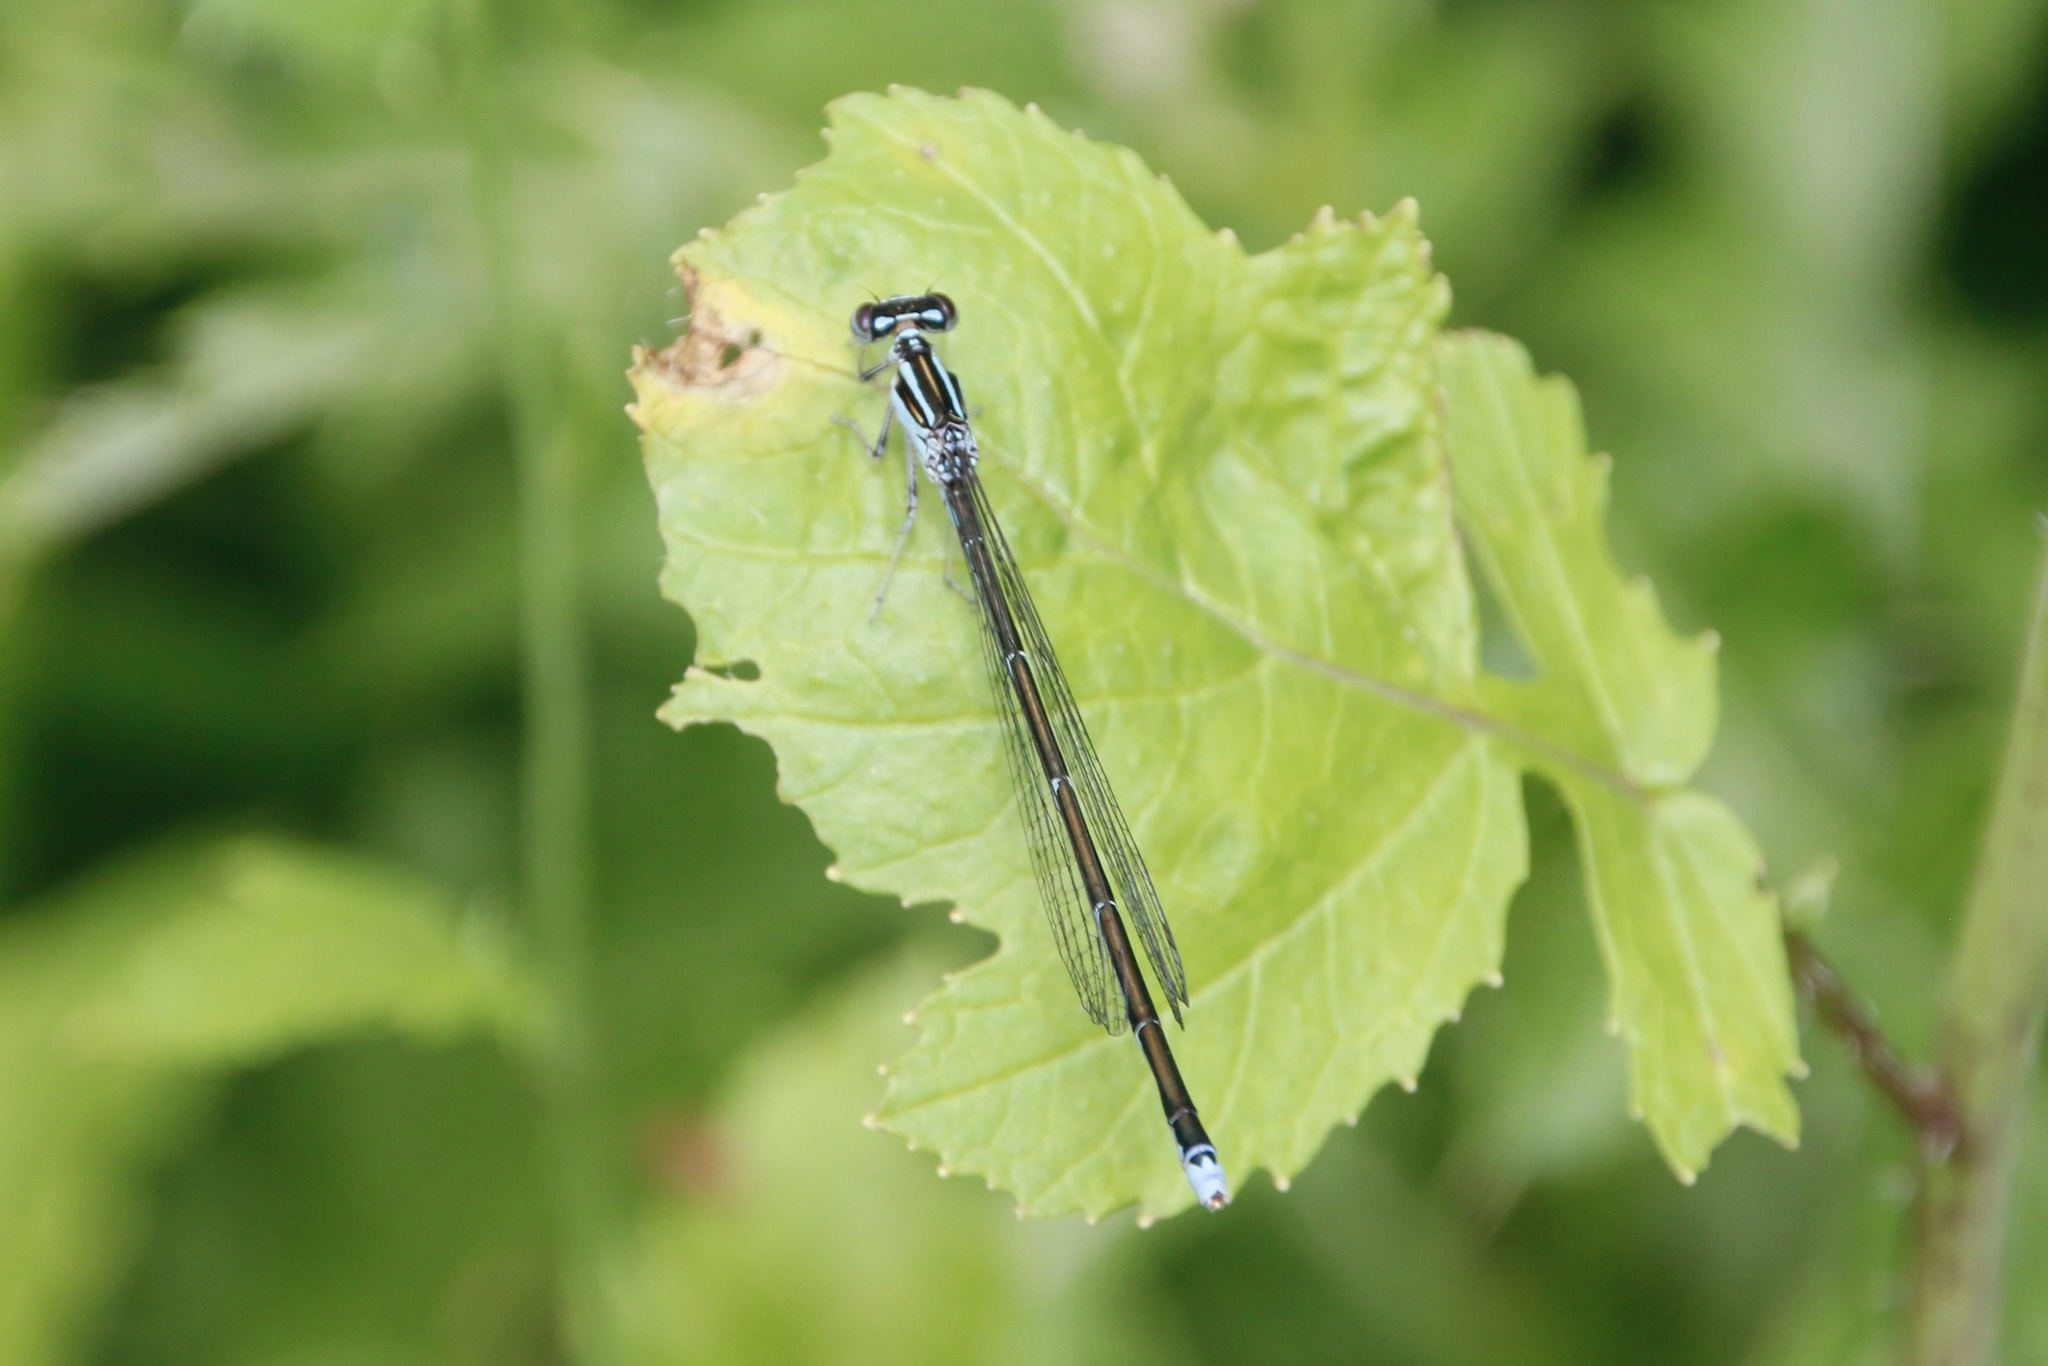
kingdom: Animalia
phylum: Arthropoda
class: Insecta
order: Odonata
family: Coenagrionidae
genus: Enallagma
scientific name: Enallagma exsulans
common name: Stream bluet
